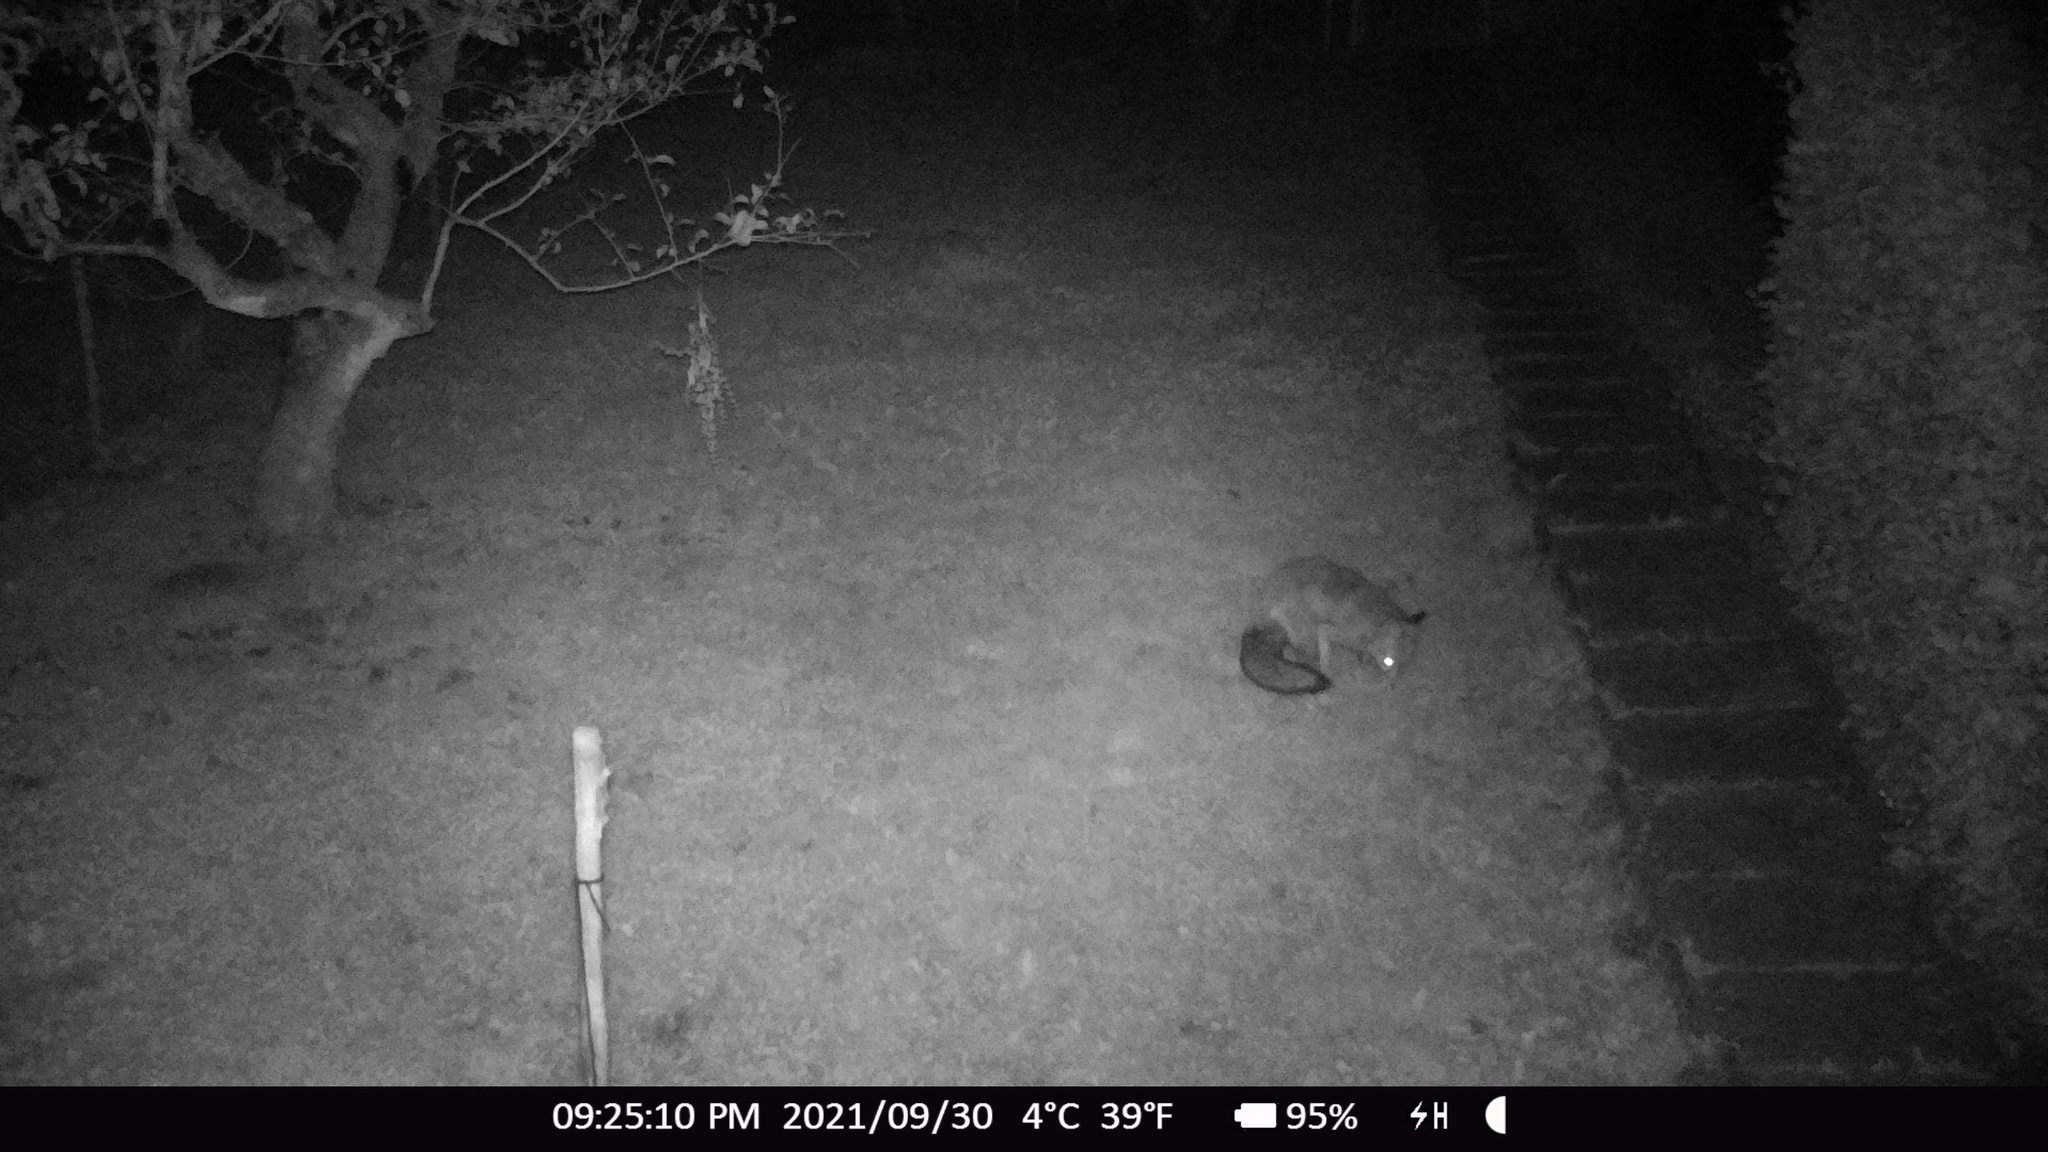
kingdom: Animalia
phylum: Chordata
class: Mammalia
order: Carnivora
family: Canidae
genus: Vulpes
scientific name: Vulpes vulpes
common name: Red fox
